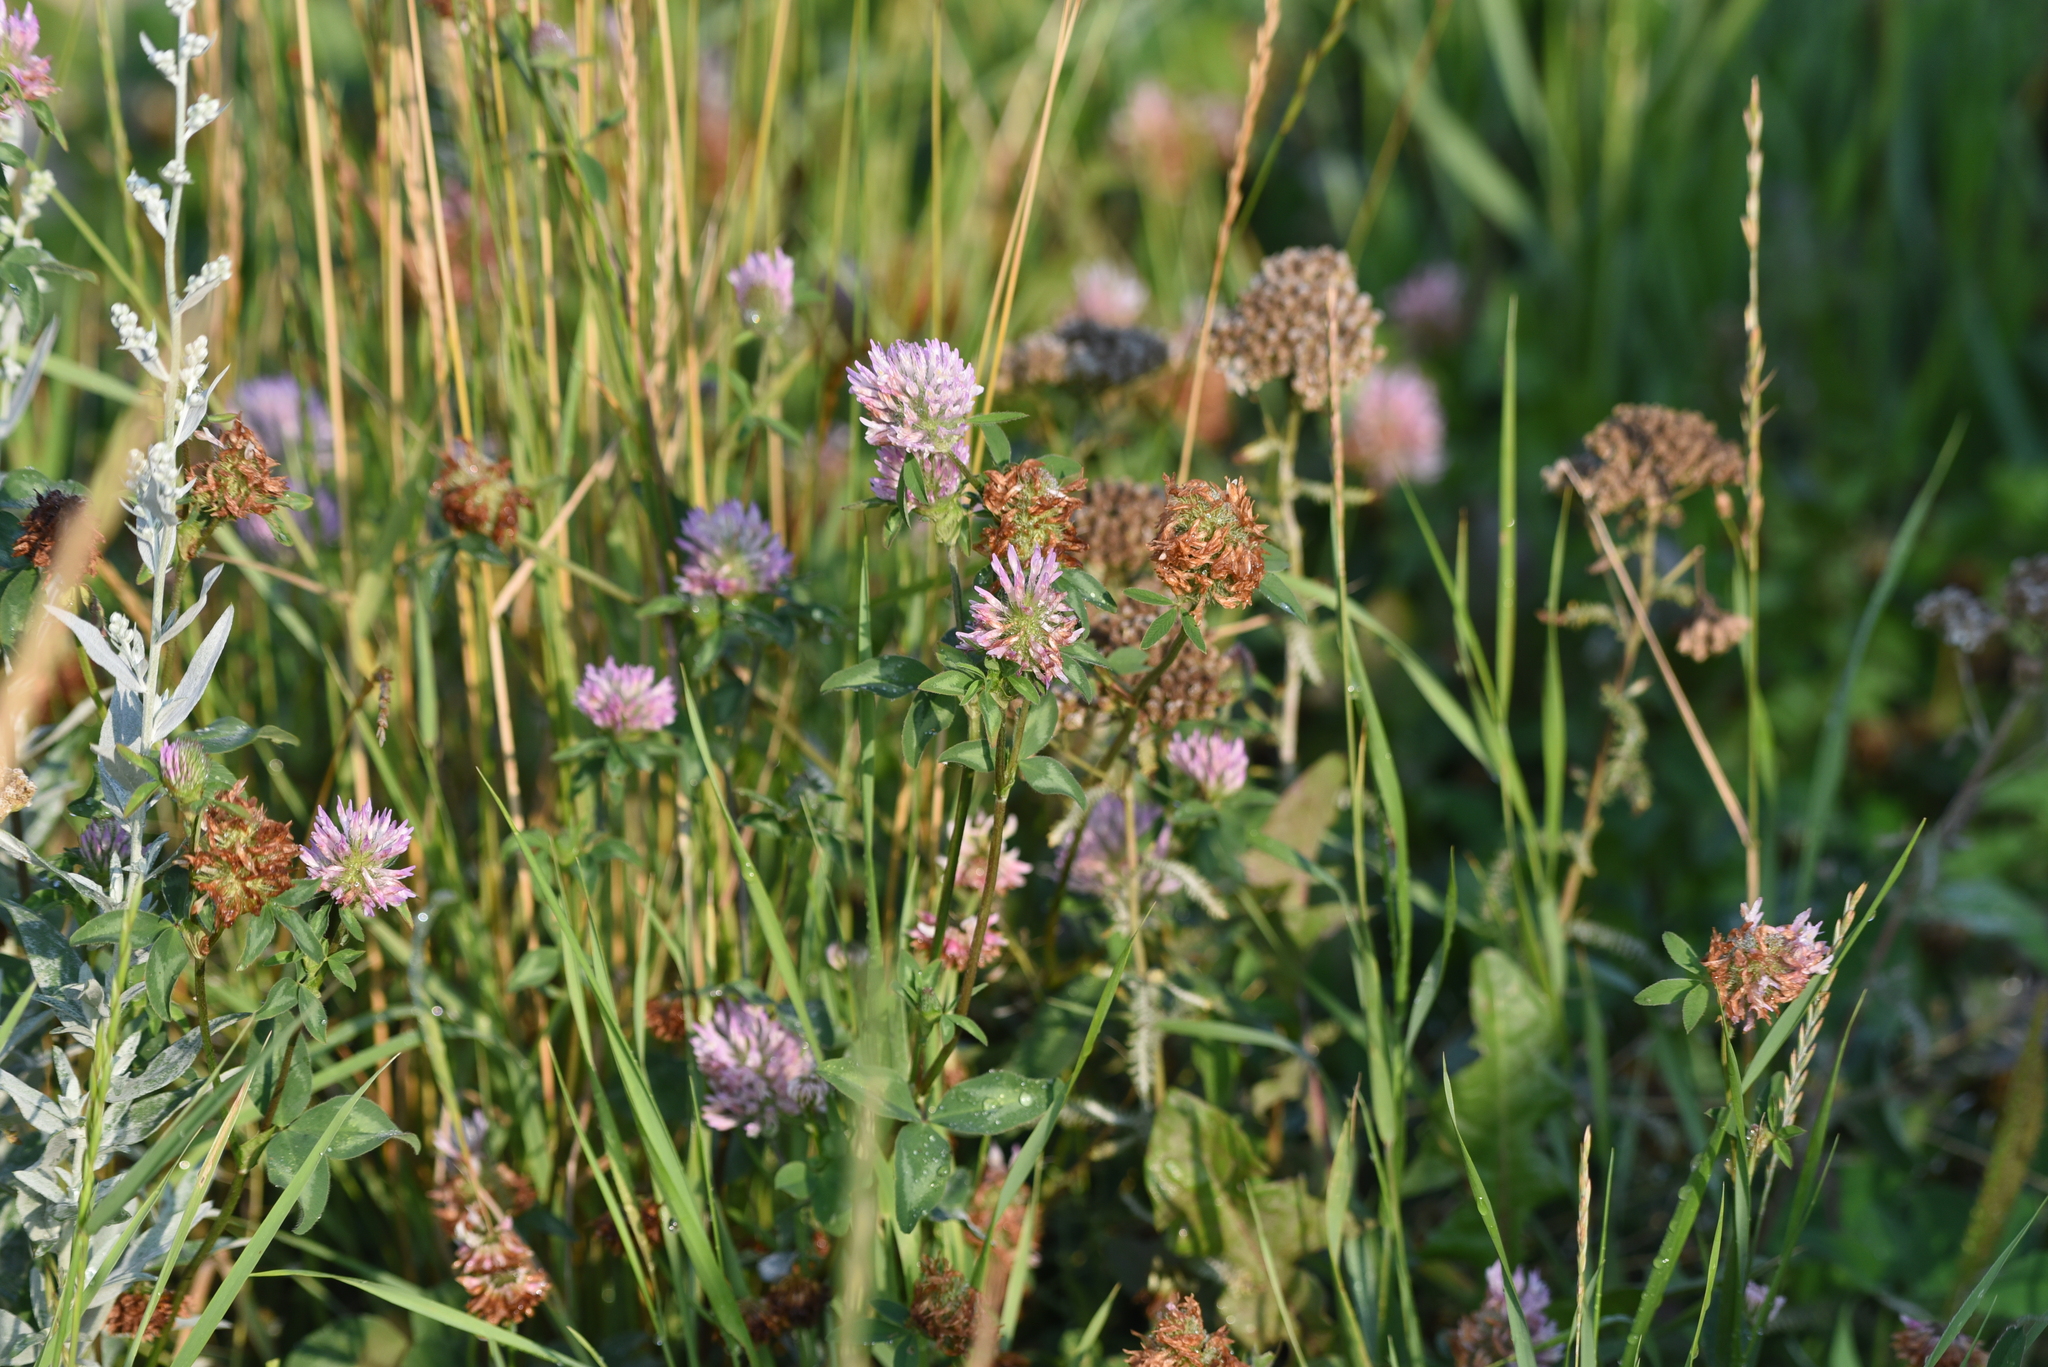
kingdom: Plantae
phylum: Tracheophyta
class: Magnoliopsida
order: Fabales
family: Fabaceae
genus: Trifolium
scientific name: Trifolium pratense
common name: Red clover
